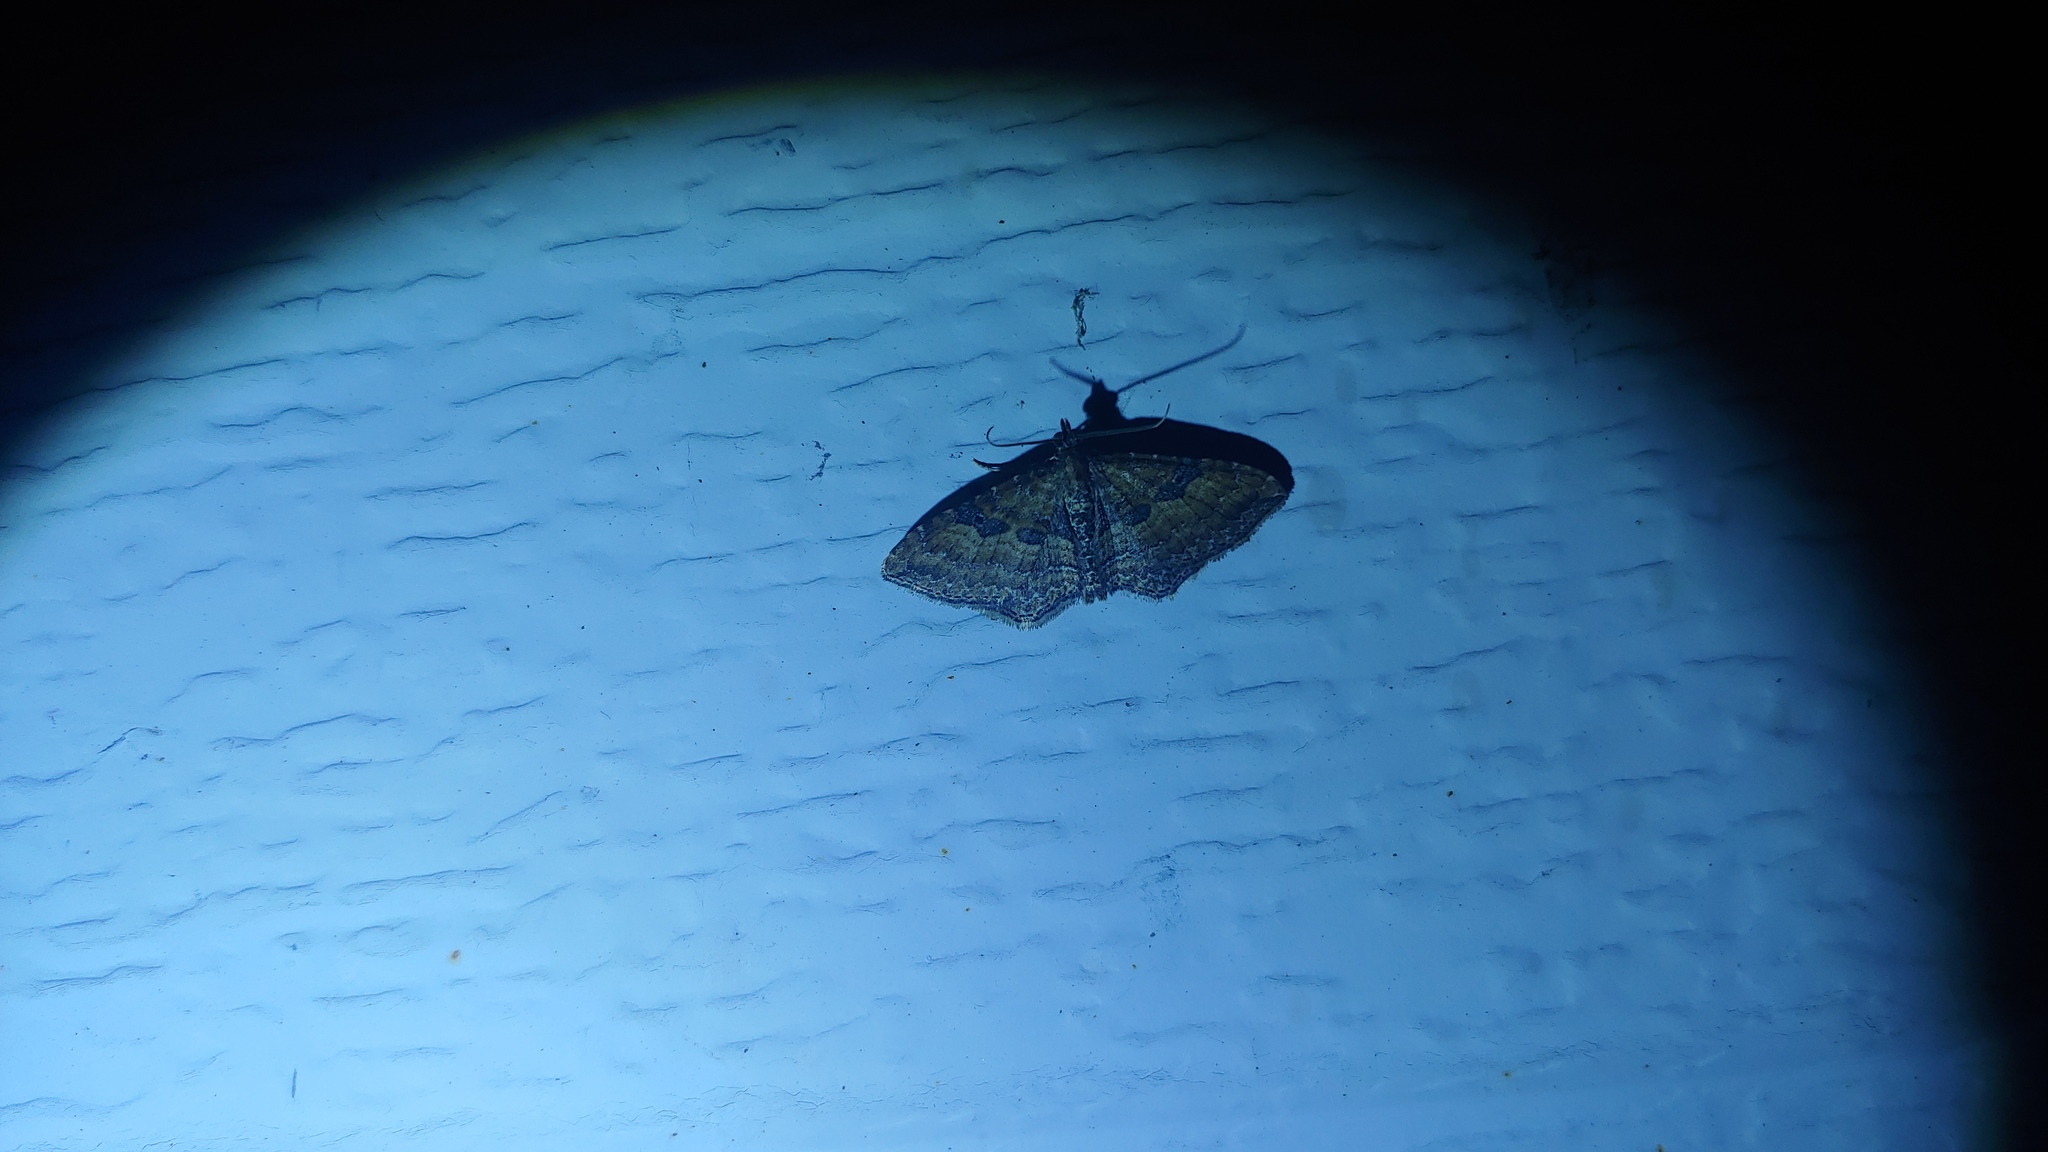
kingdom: Animalia
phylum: Arthropoda
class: Insecta
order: Lepidoptera
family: Geometridae
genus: Orthonama
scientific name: Orthonama obstipata
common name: The gem
